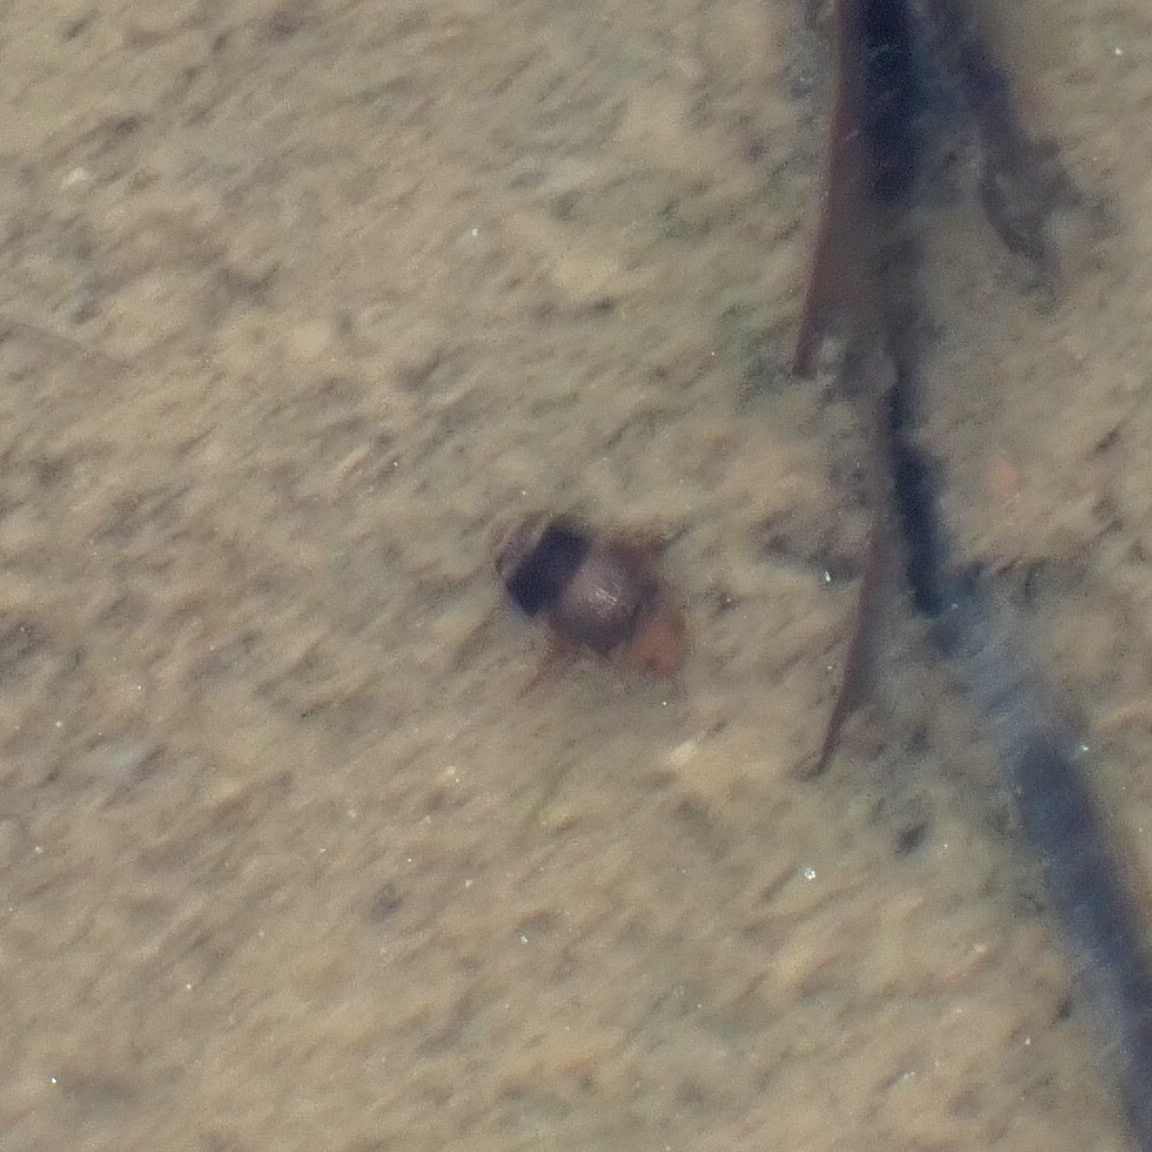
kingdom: Animalia
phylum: Arthropoda
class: Insecta
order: Coleoptera
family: Dytiscidae
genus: Laccophilus
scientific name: Laccophilus fasciatus
